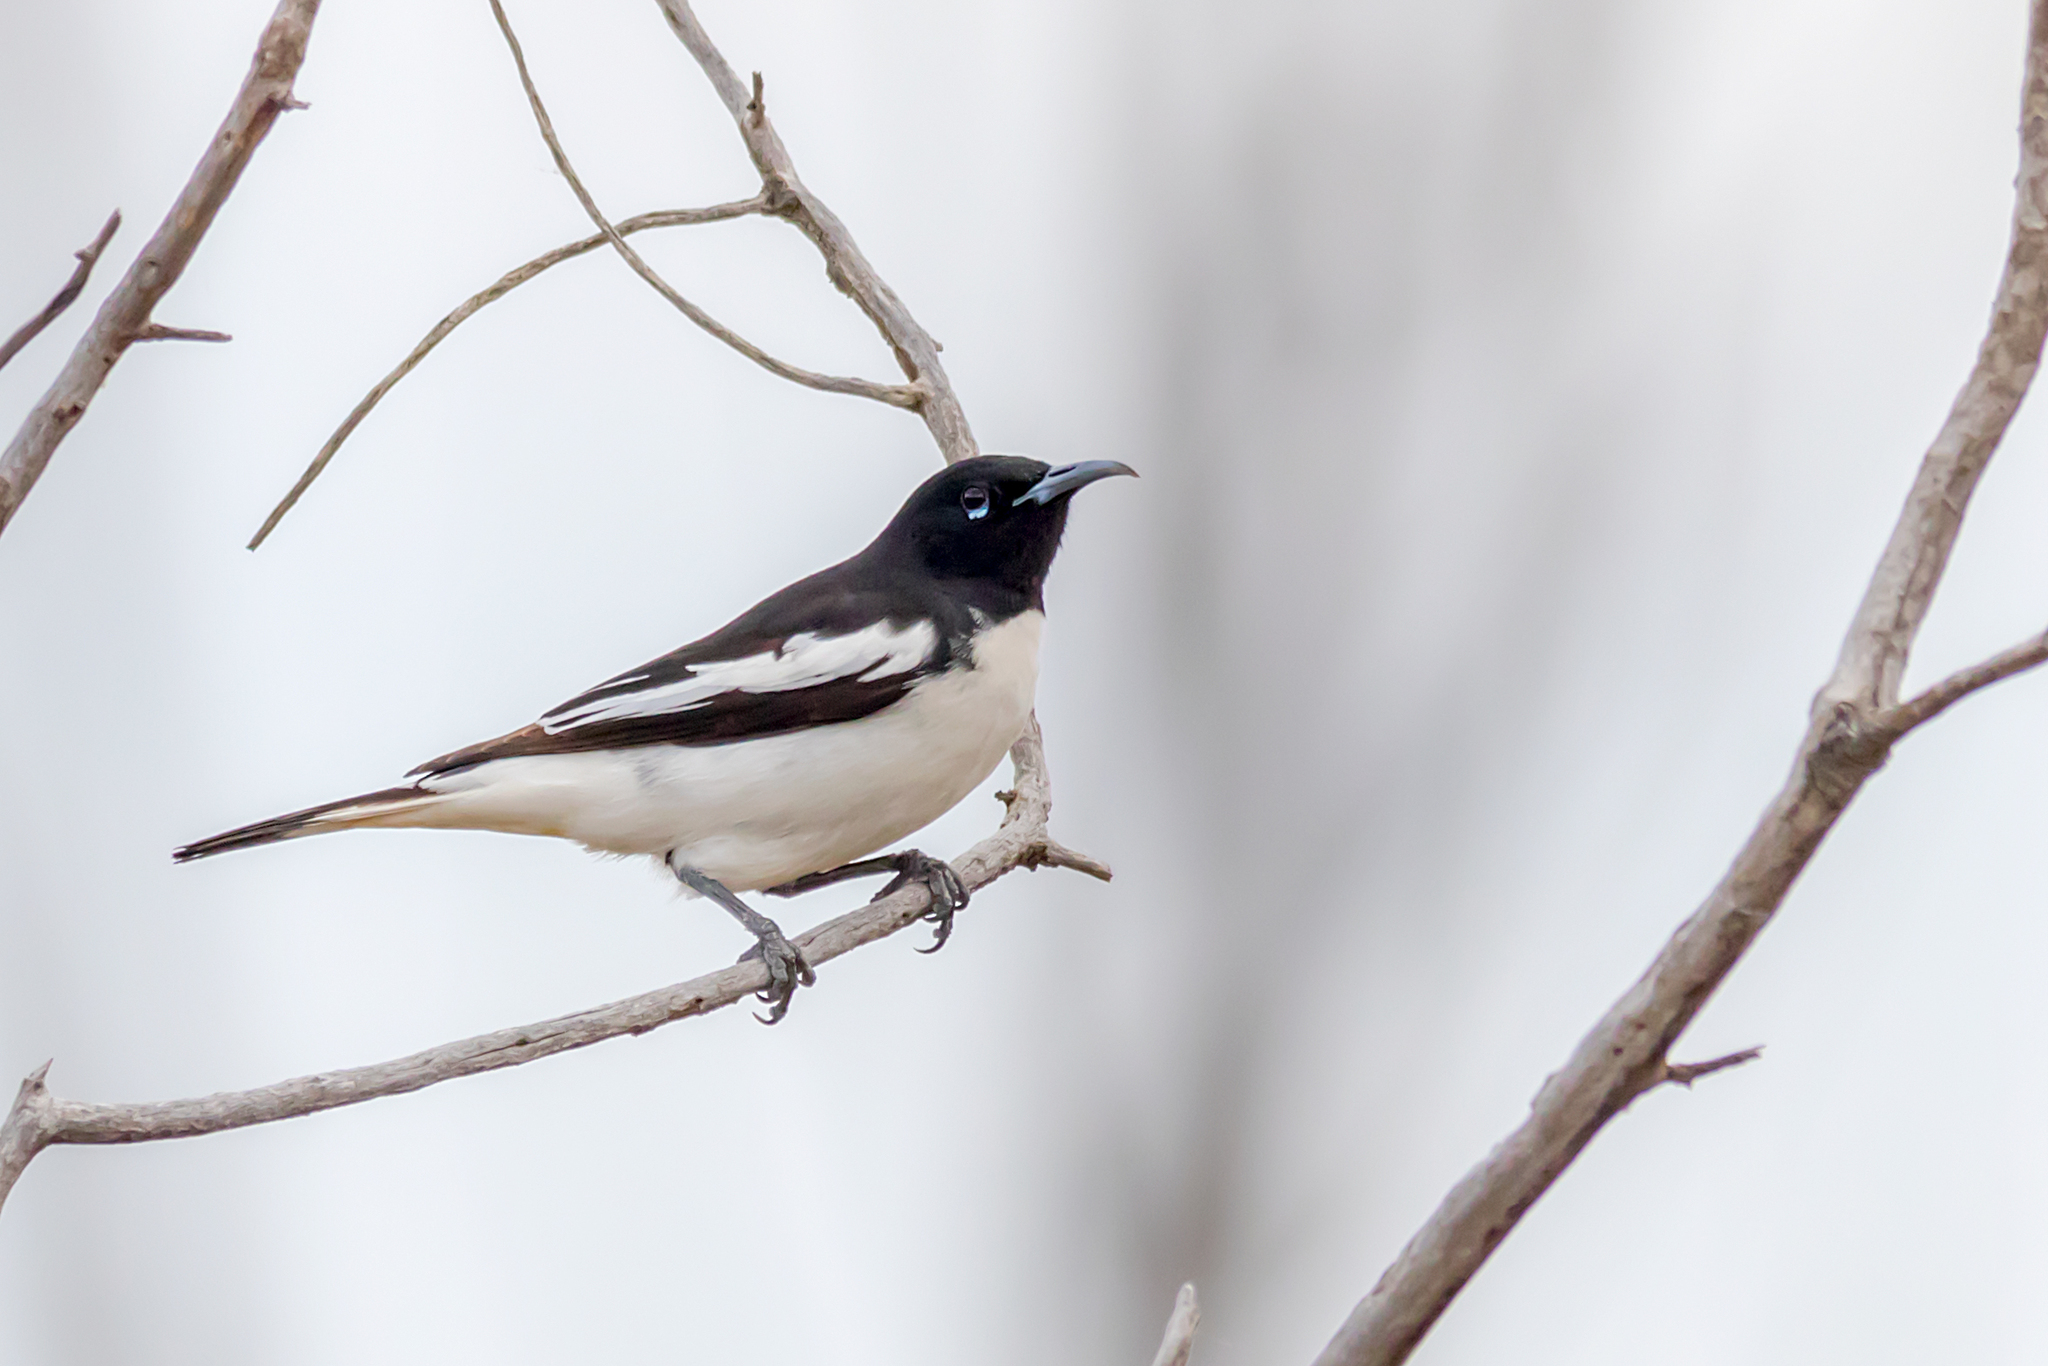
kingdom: Animalia
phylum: Chordata
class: Aves
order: Passeriformes
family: Meliphagidae
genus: Certhionyx
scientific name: Certhionyx variegatus
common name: Pied honeyeater
